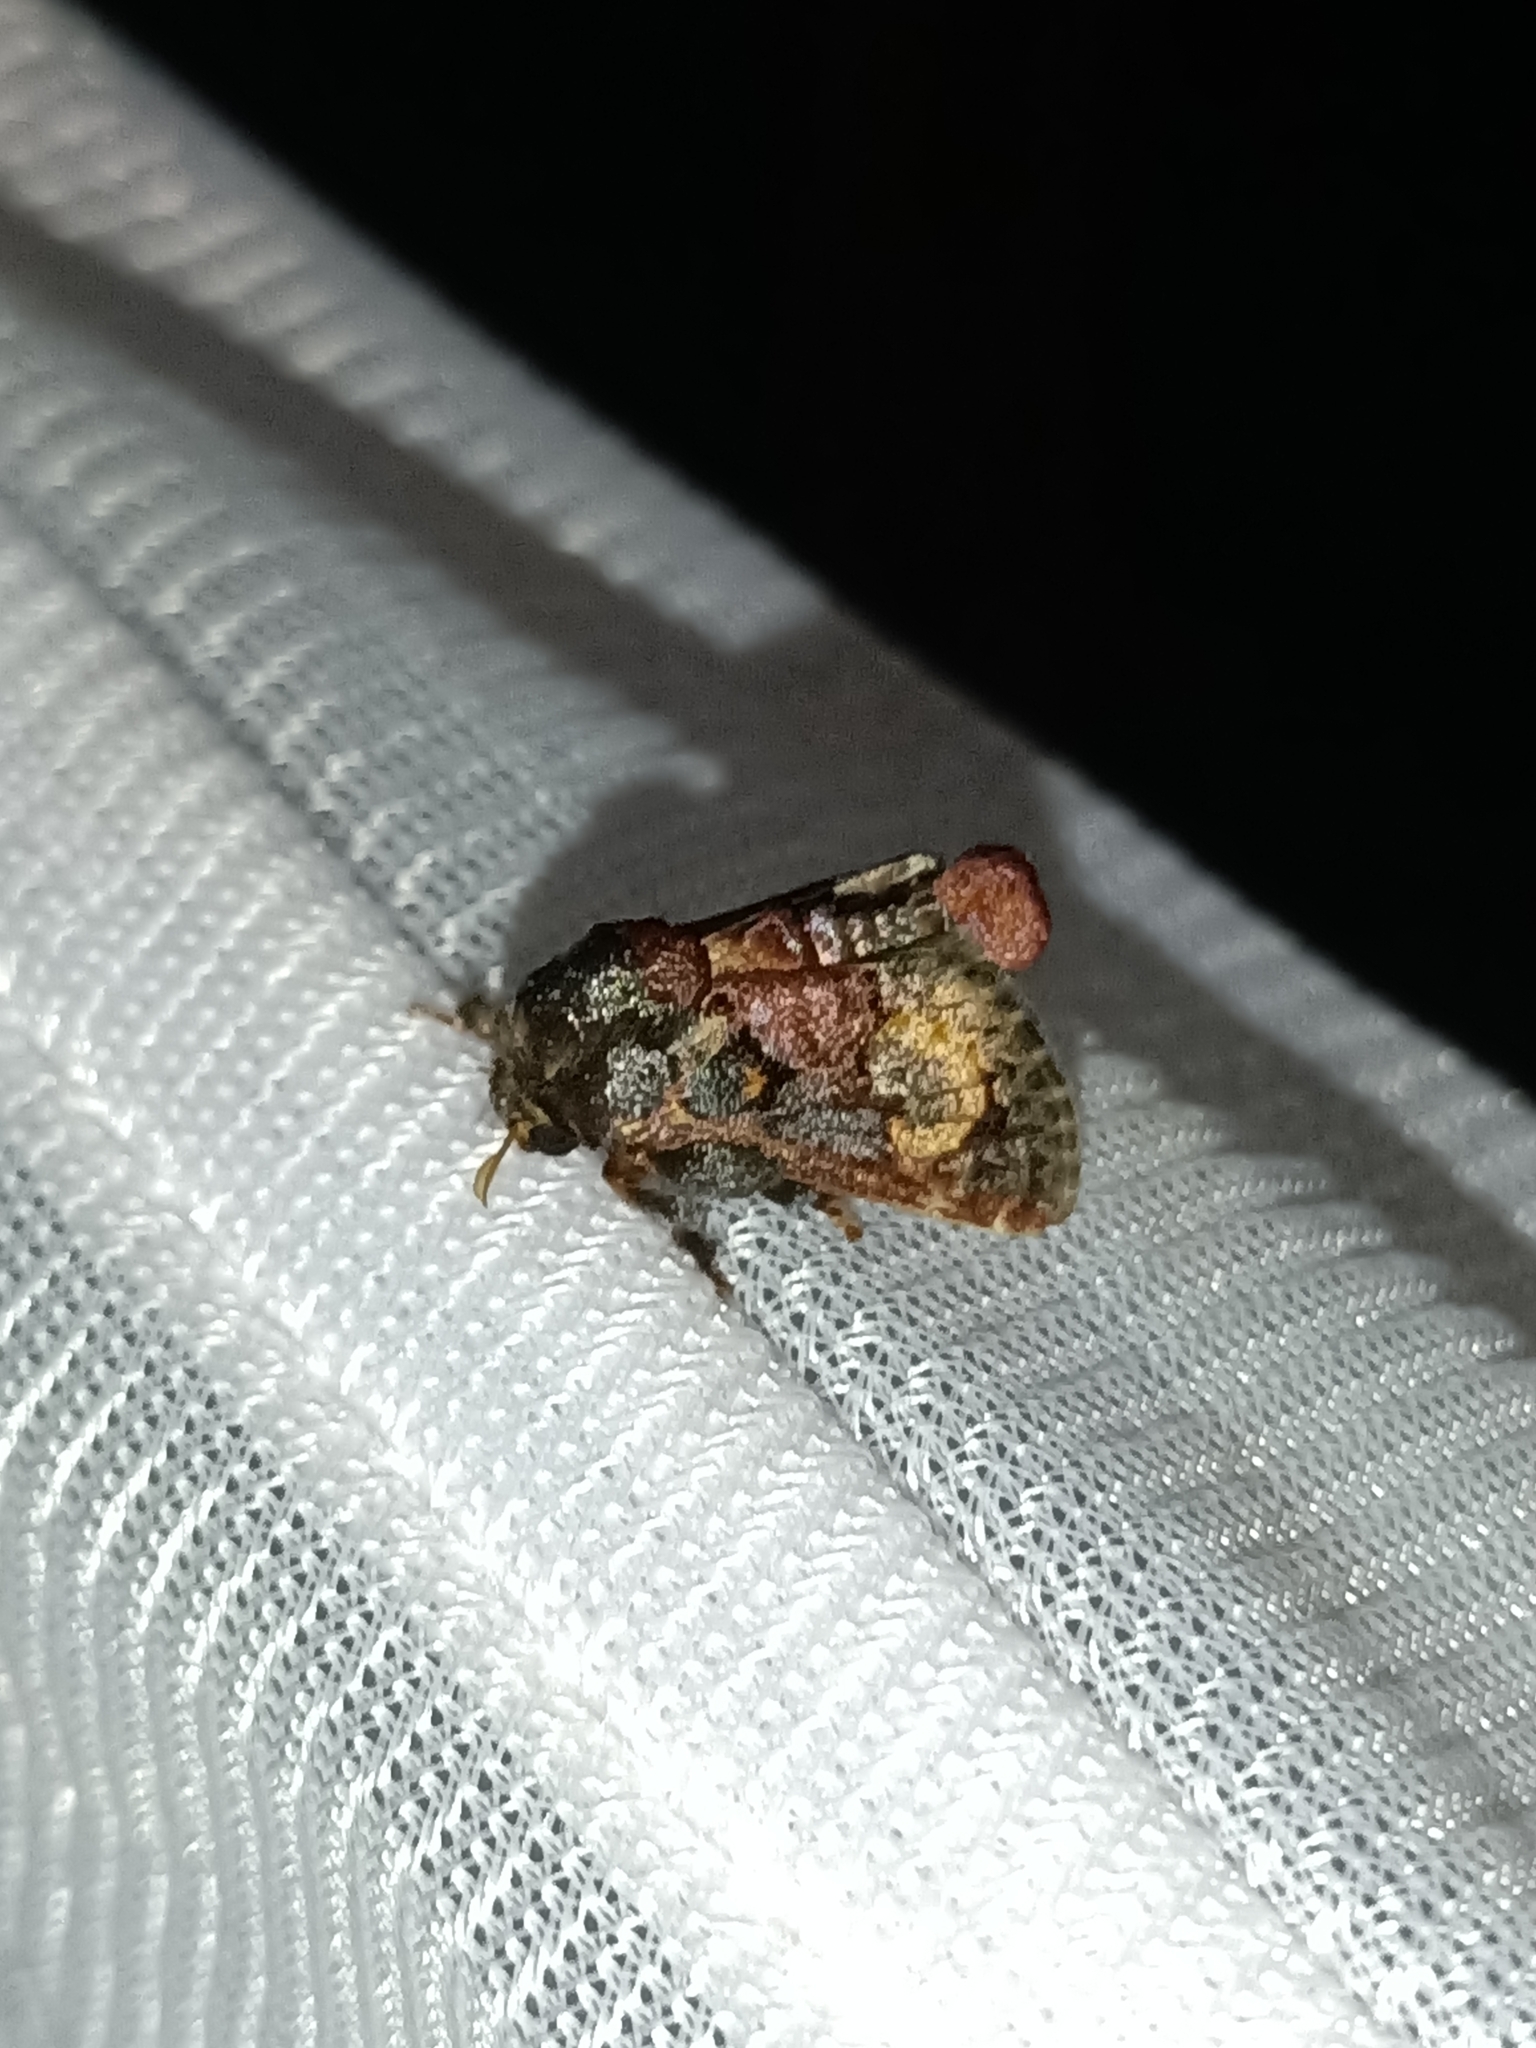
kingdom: Animalia
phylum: Arthropoda
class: Insecta
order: Lepidoptera
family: Limacodidae
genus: Euphobetron
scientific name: Euphobetron cupreitincta
